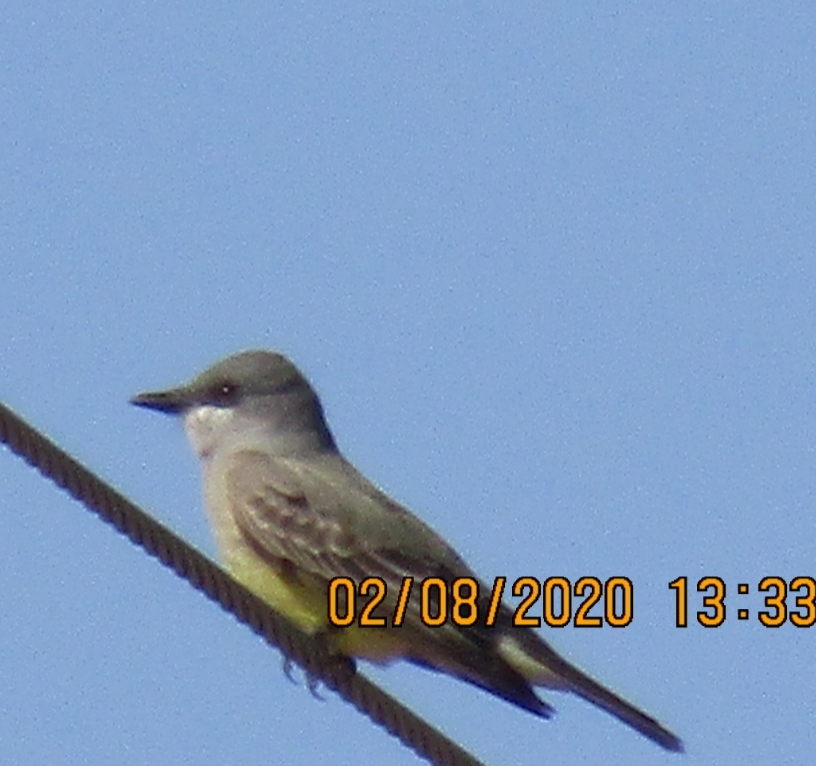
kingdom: Animalia
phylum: Chordata
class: Aves
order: Passeriformes
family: Tyrannidae
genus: Tyrannus
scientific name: Tyrannus vociferans
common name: Cassin's kingbird
